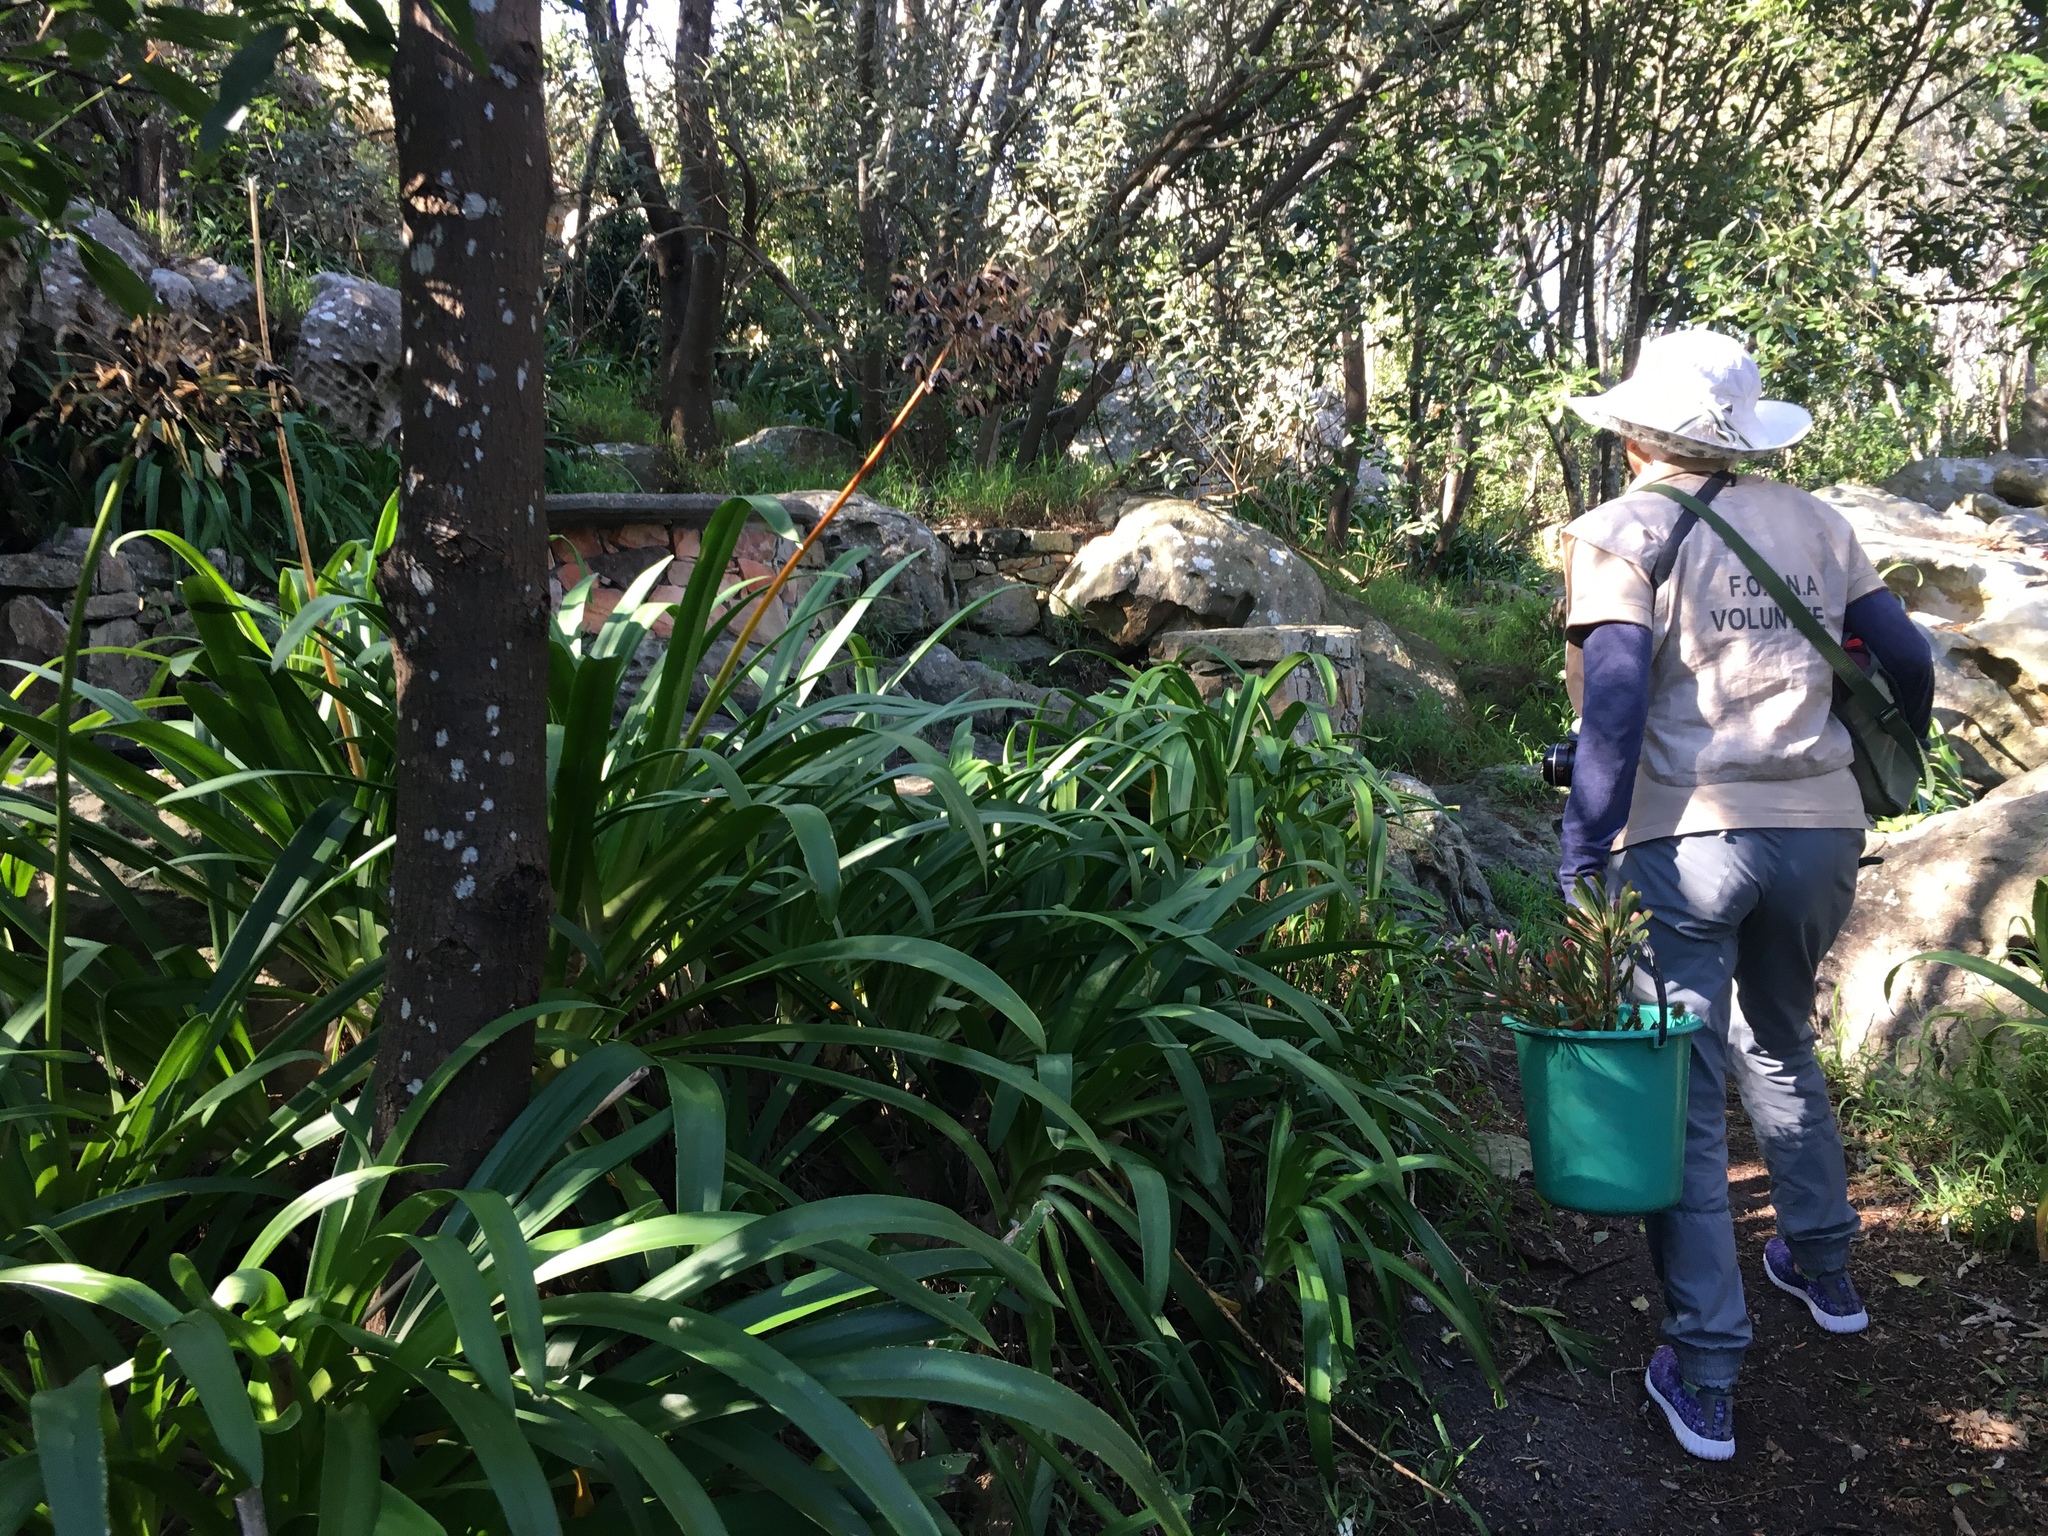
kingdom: Plantae
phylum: Tracheophyta
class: Liliopsida
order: Asparagales
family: Amaryllidaceae
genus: Agapanthus
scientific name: Agapanthus praecox
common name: African-lily
